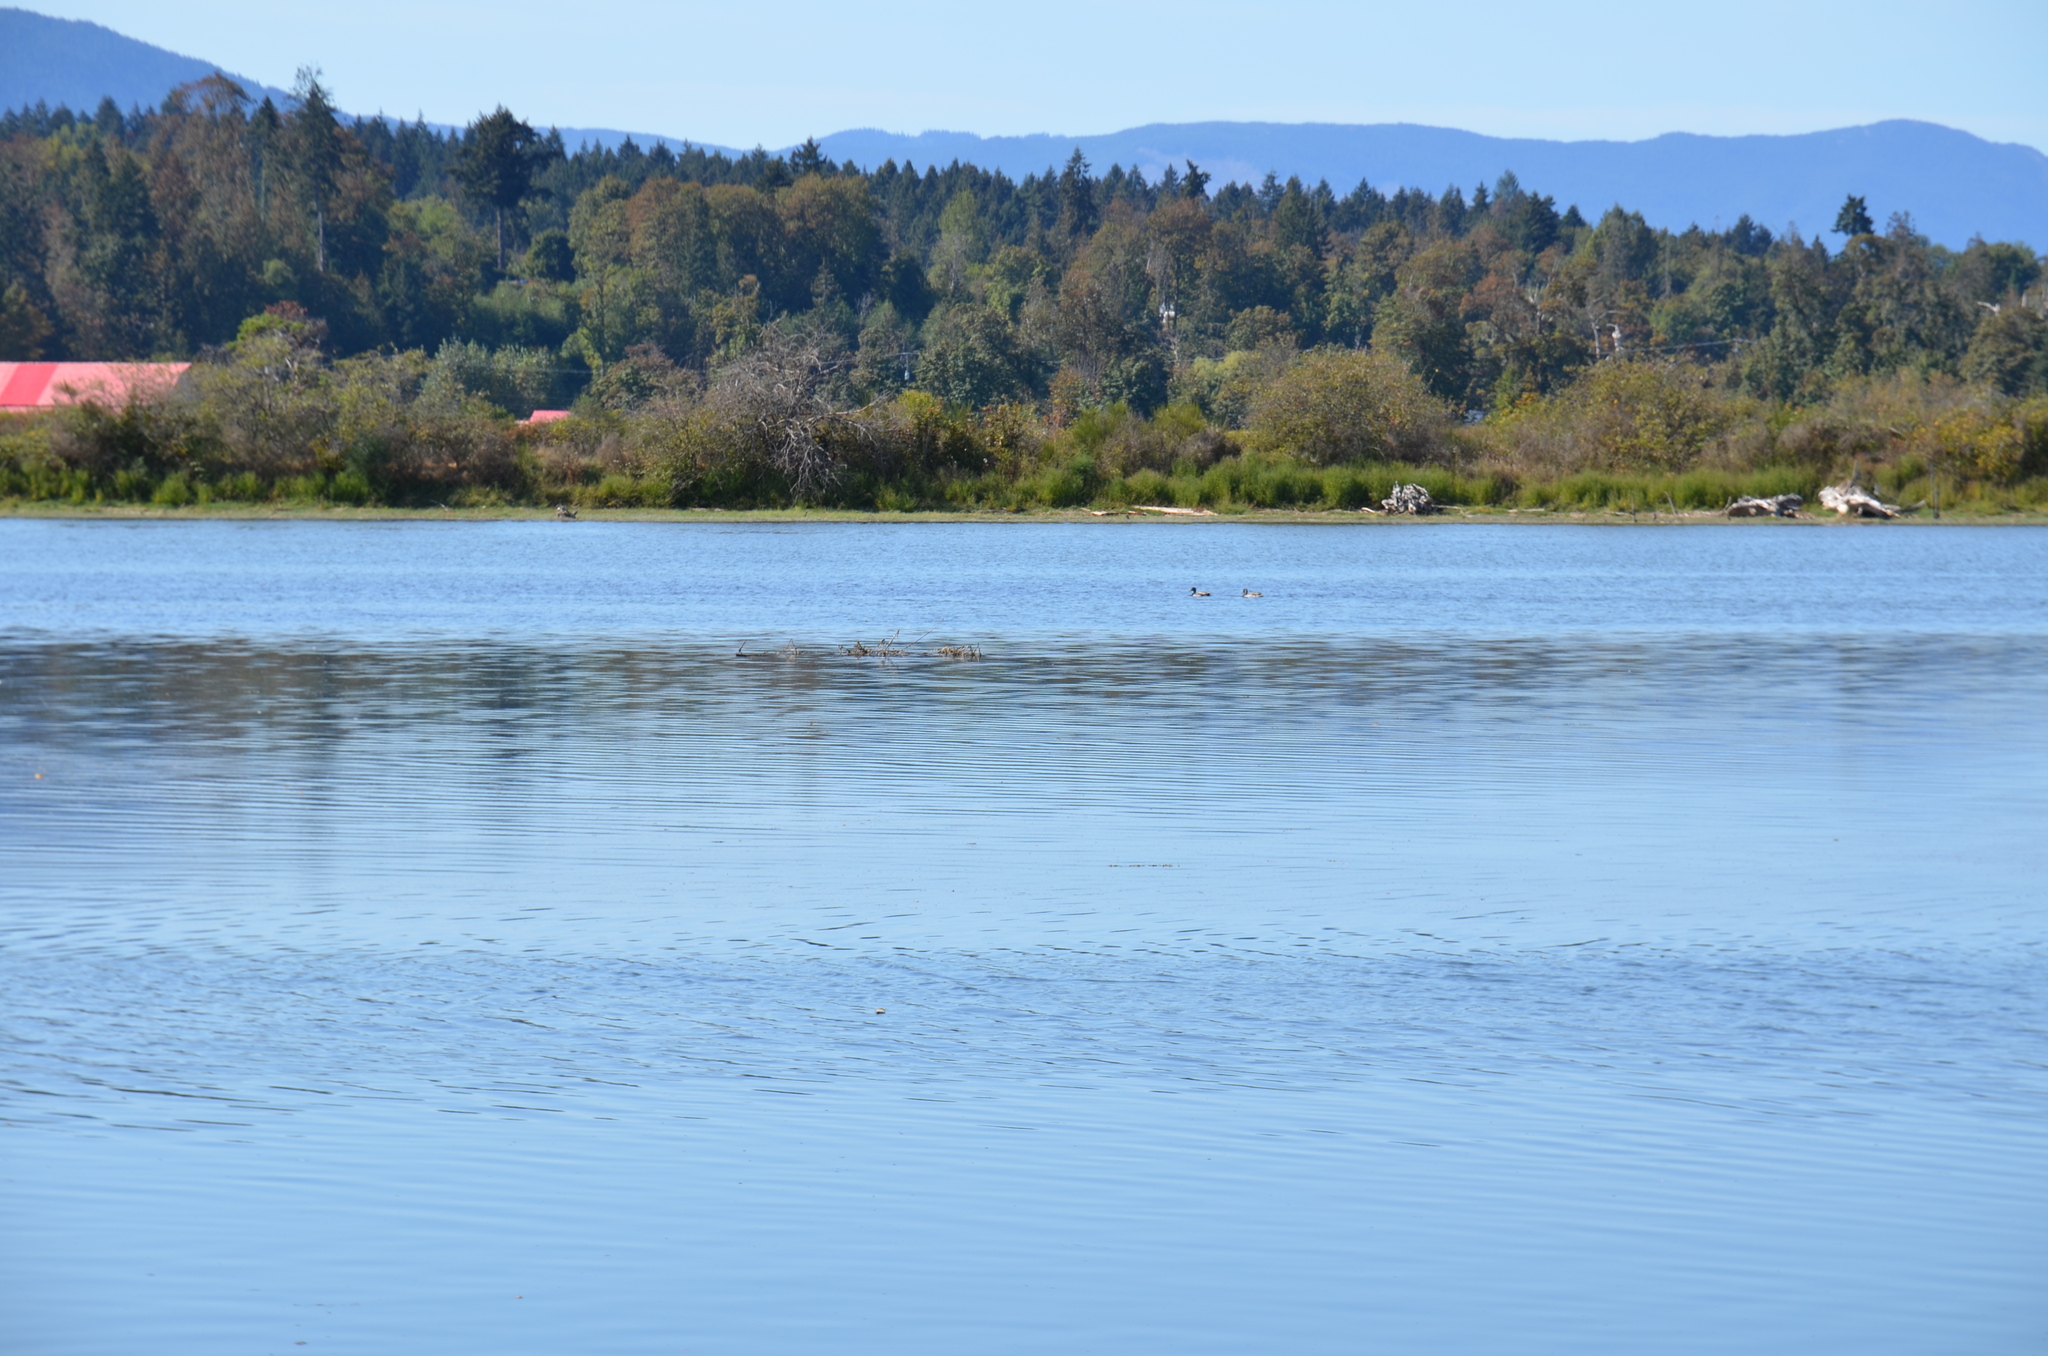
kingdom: Animalia
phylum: Chordata
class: Aves
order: Anseriformes
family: Anatidae
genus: Anas
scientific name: Anas platyrhynchos
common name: Mallard
